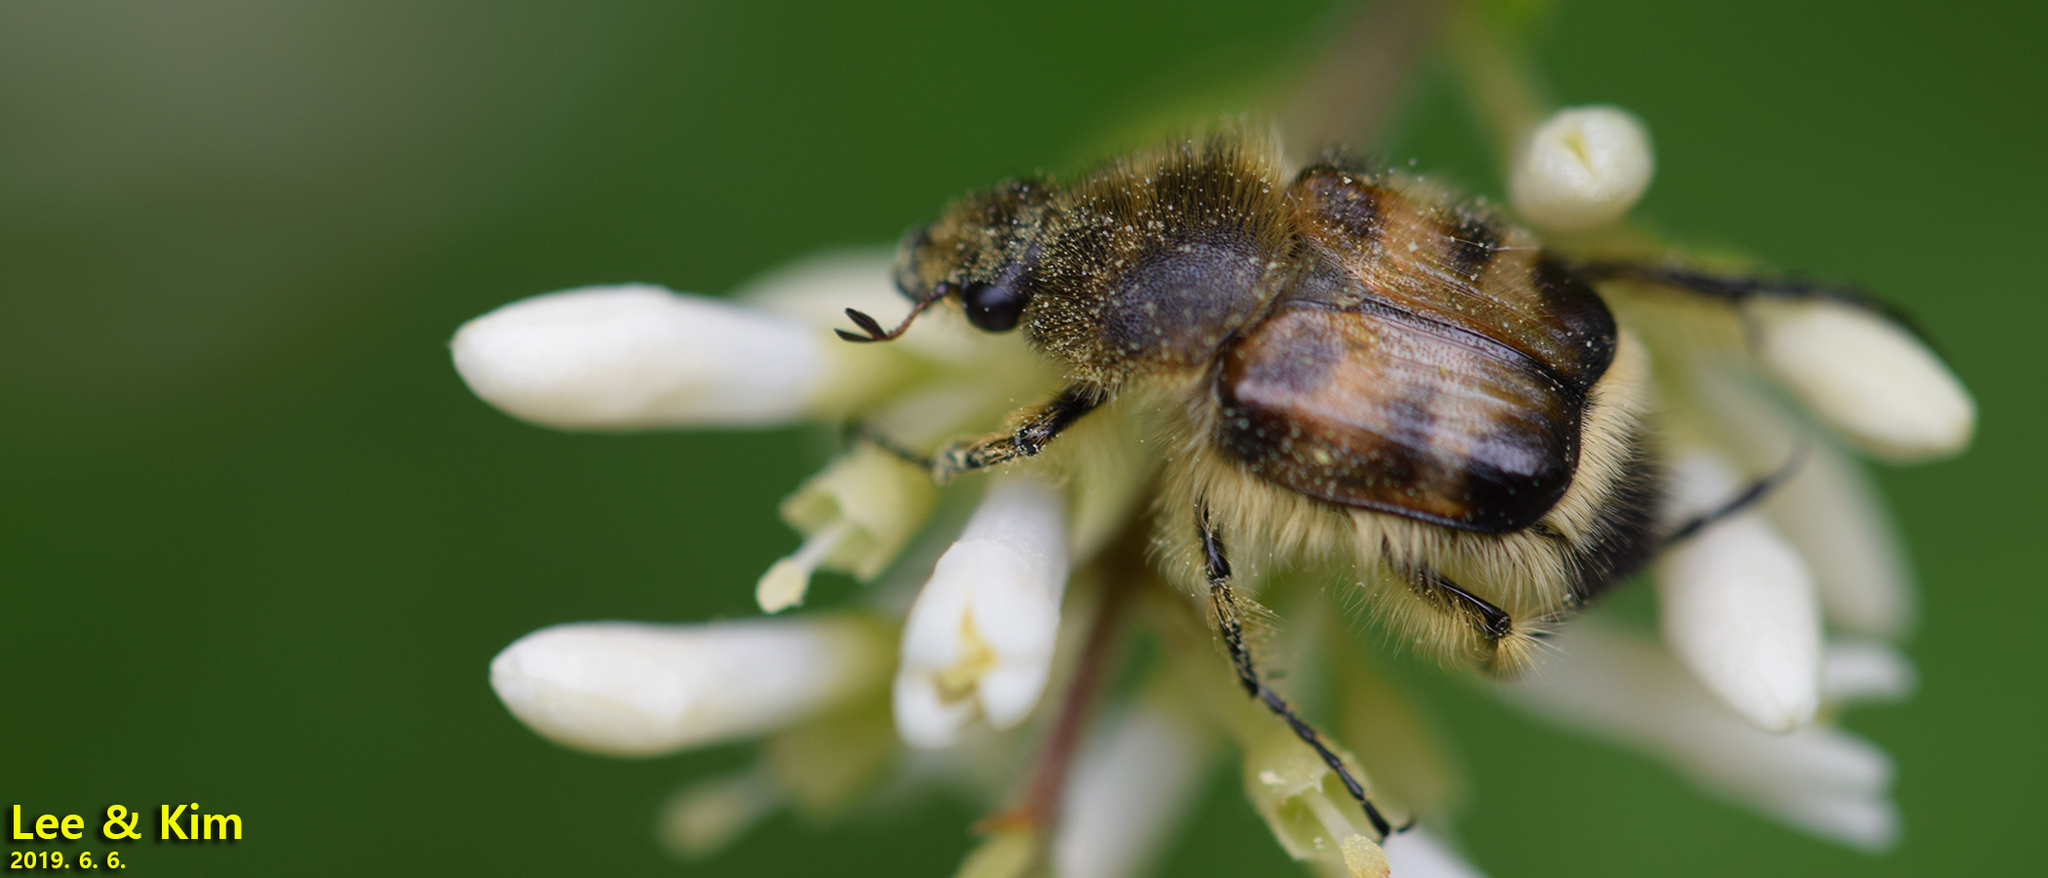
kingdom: Animalia
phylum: Arthropoda
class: Insecta
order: Coleoptera
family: Scarabaeidae
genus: Lasiotrichius
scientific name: Lasiotrichius succinctus
